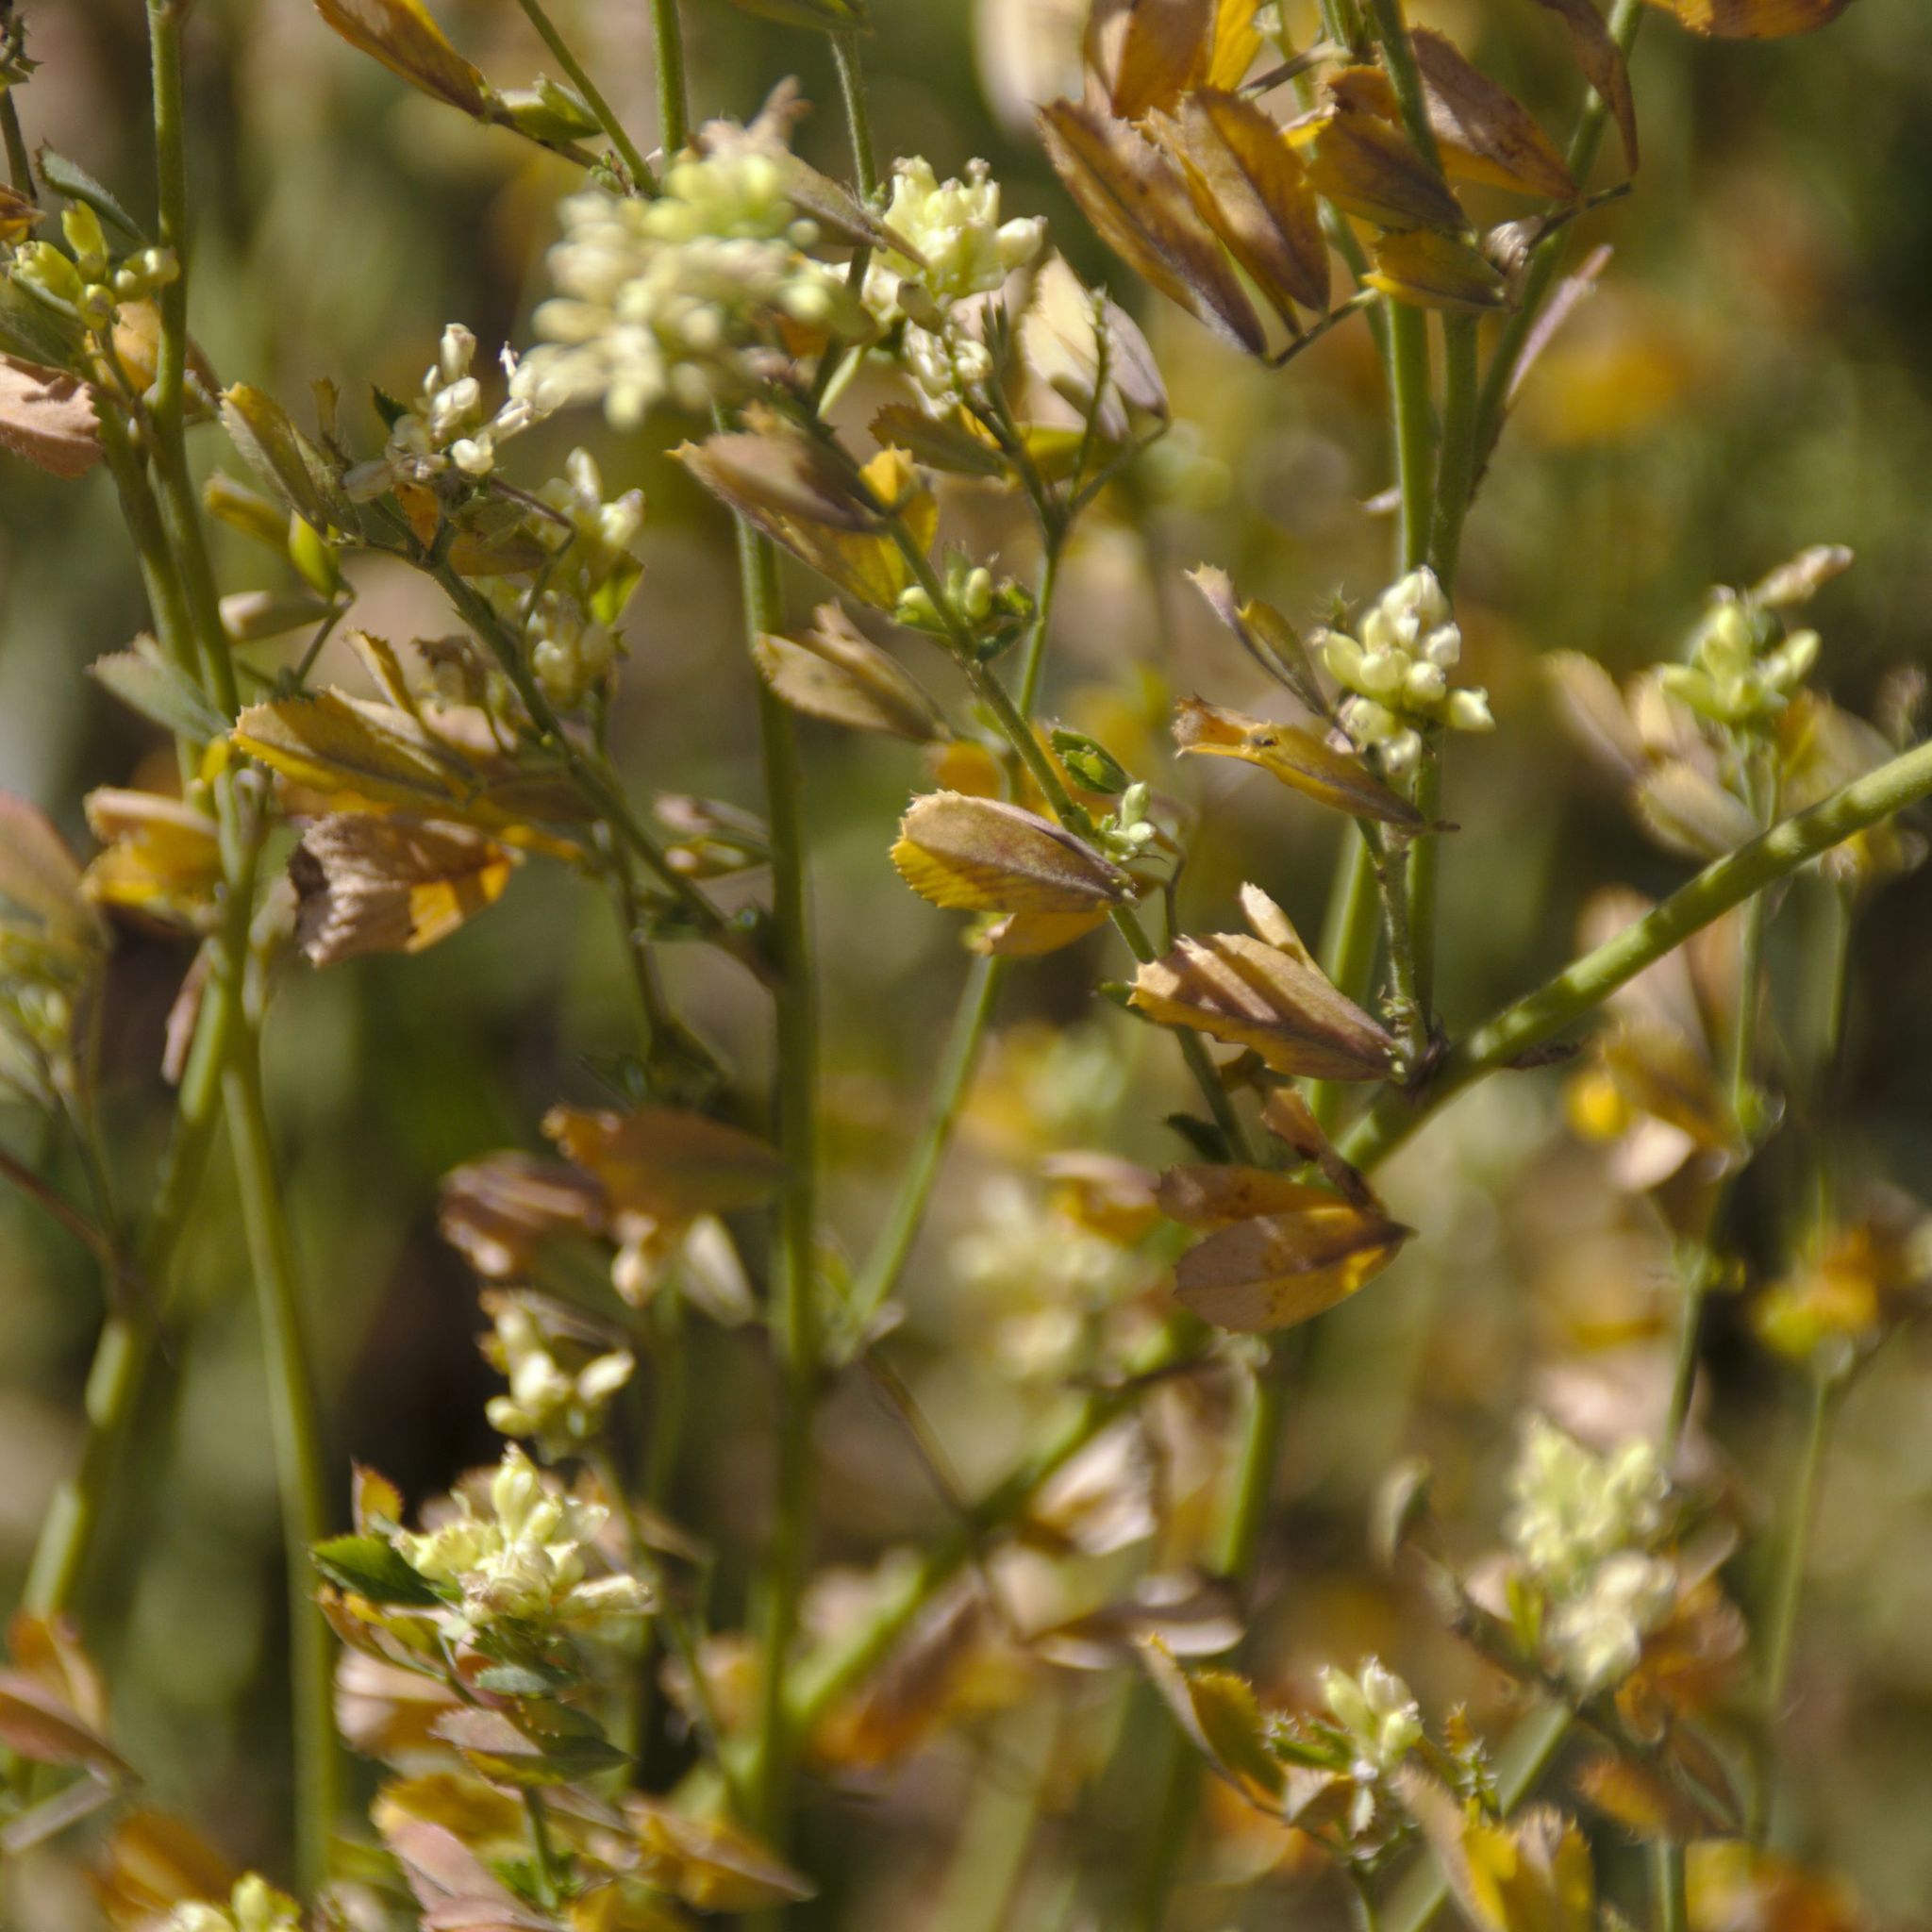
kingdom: Plantae
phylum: Tracheophyta
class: Magnoliopsida
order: Fabales
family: Fabaceae
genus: Medicago
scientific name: Medicago varia
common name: Sand lucerne
